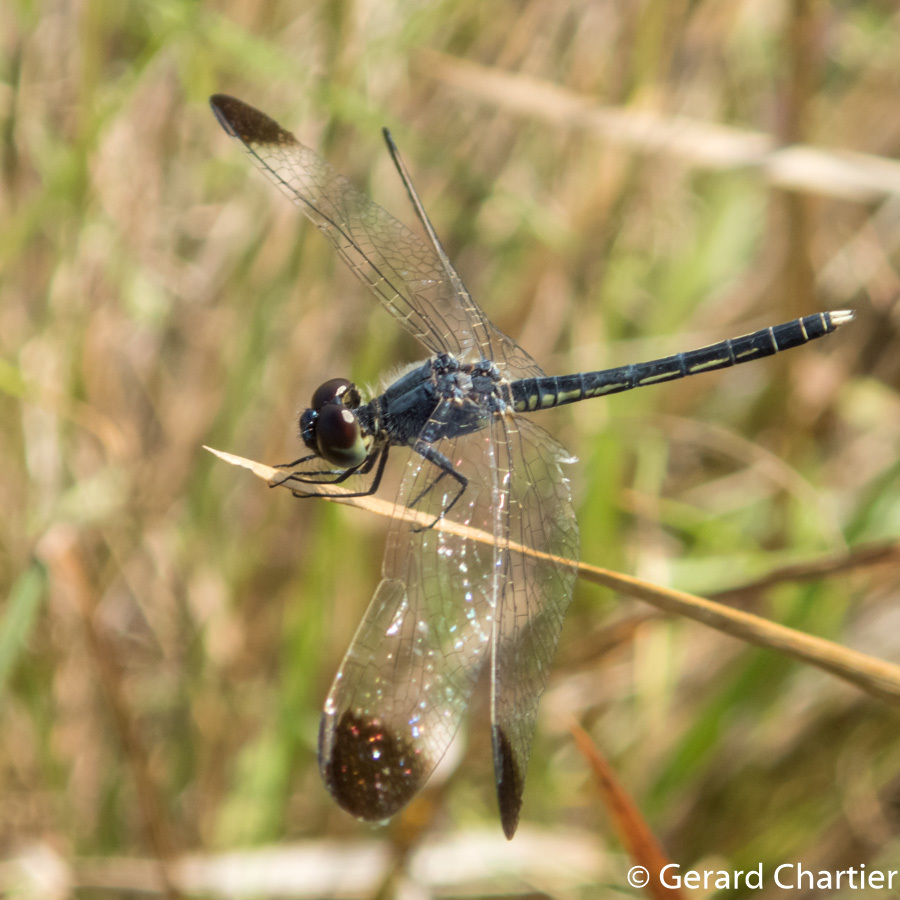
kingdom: Animalia
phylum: Arthropoda
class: Insecta
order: Odonata
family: Libellulidae
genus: Diplacodes
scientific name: Diplacodes nebulosa
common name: Black-tipped percher
